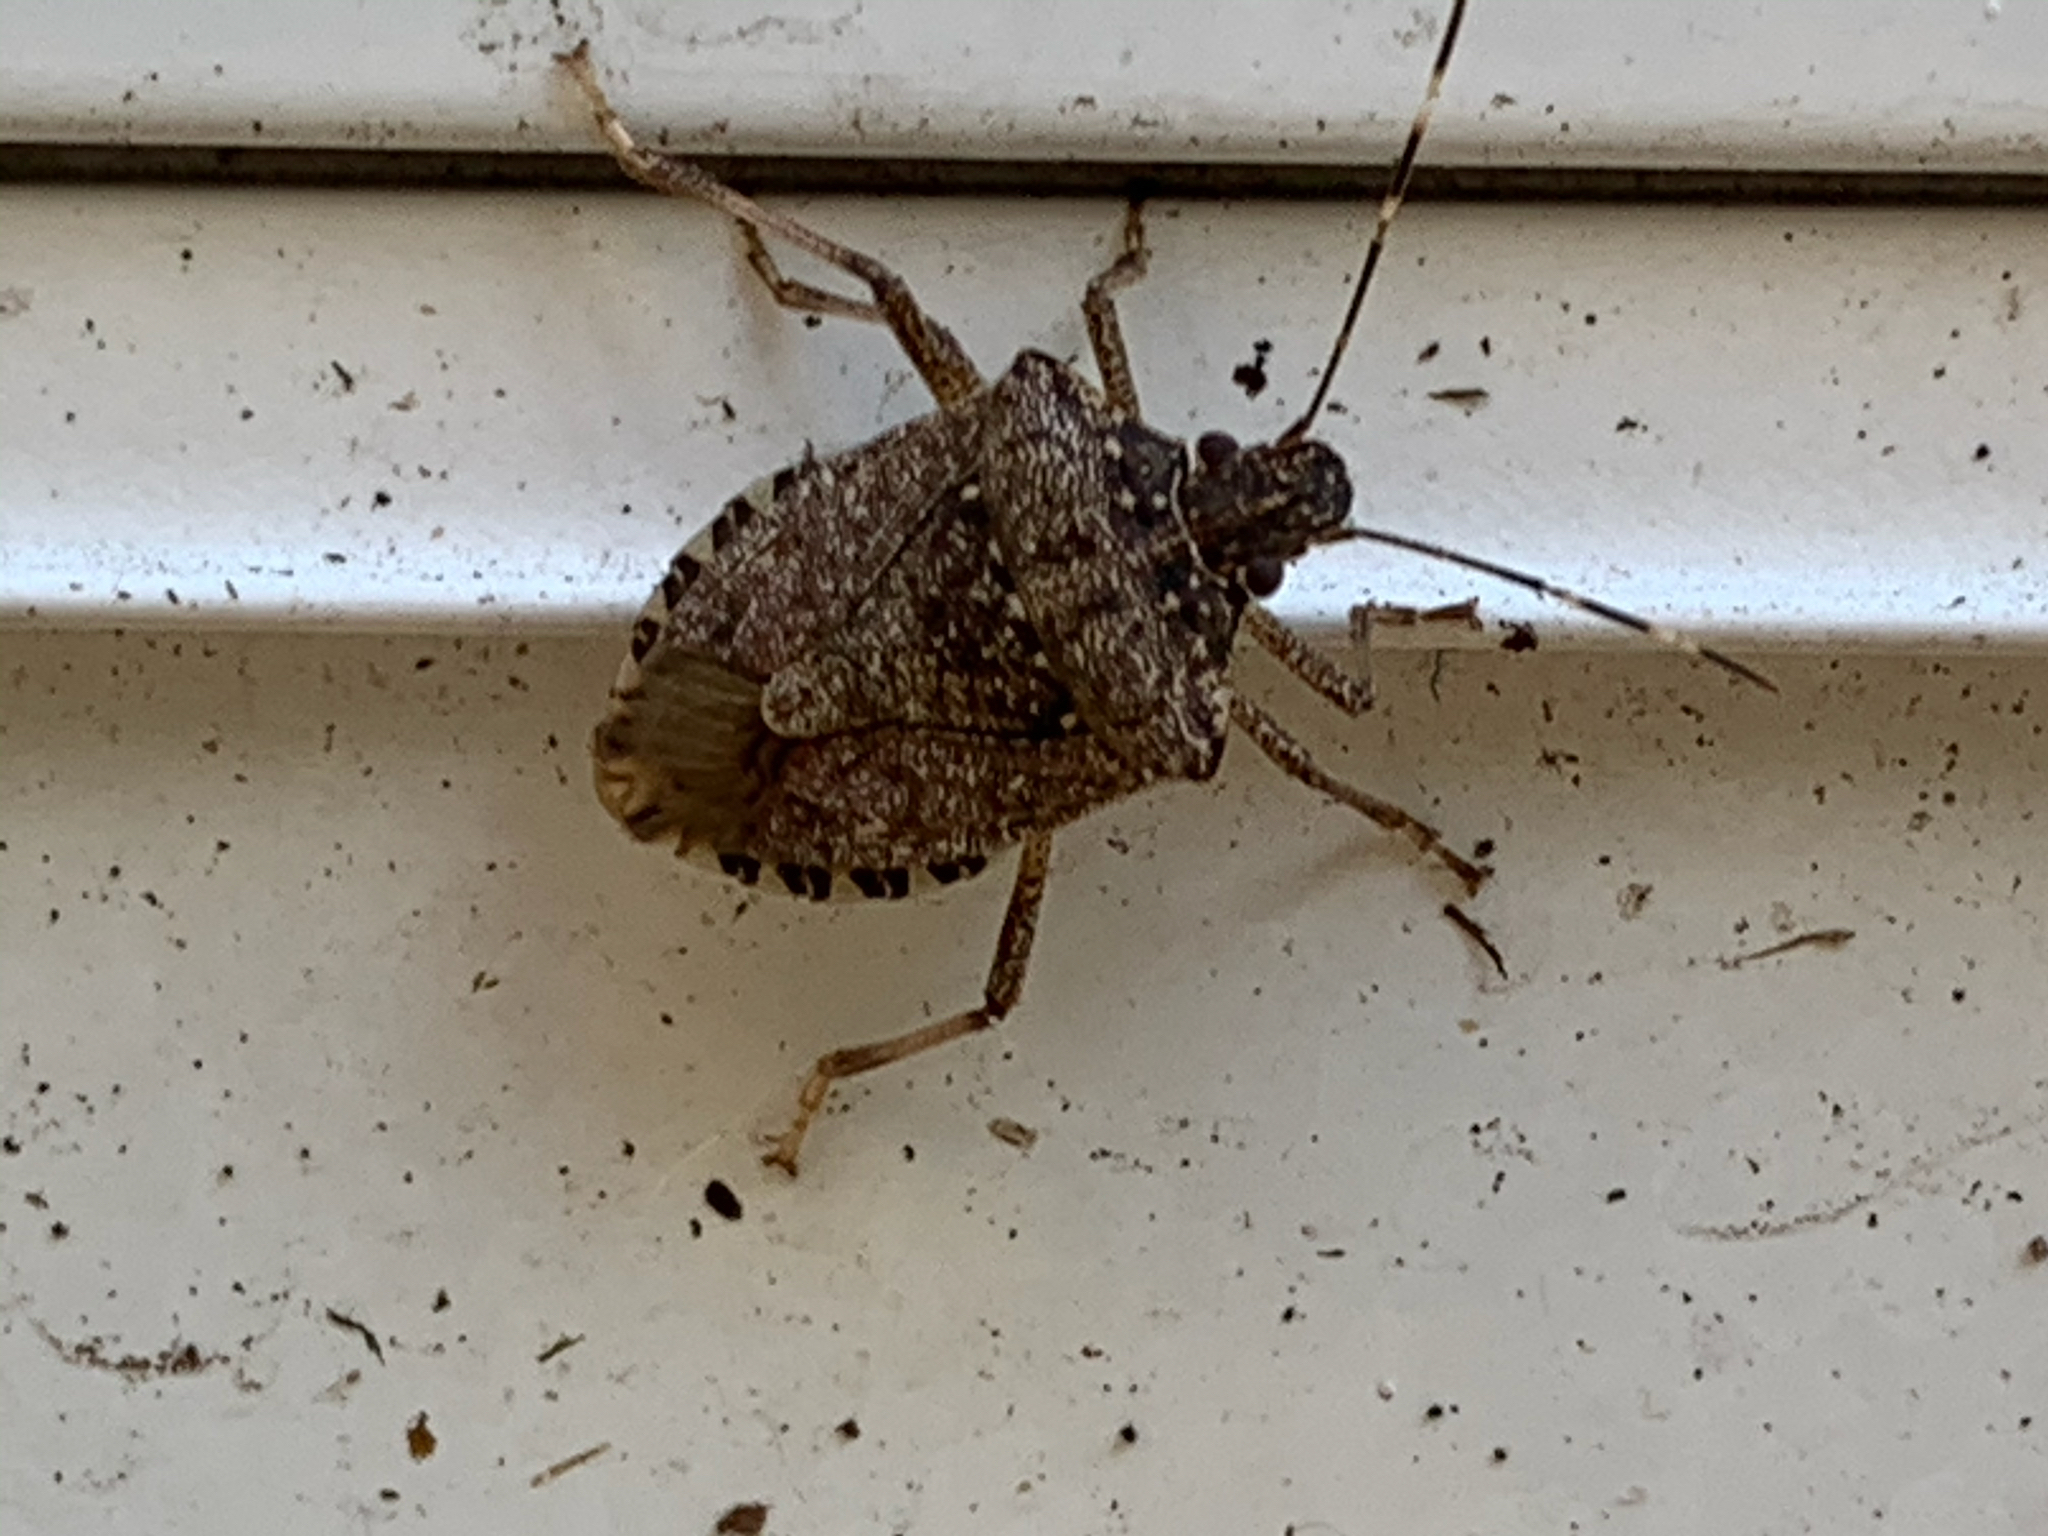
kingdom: Animalia
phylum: Arthropoda
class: Insecta
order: Hemiptera
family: Pentatomidae
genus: Halyomorpha
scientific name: Halyomorpha halys
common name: Brown marmorated stink bug
